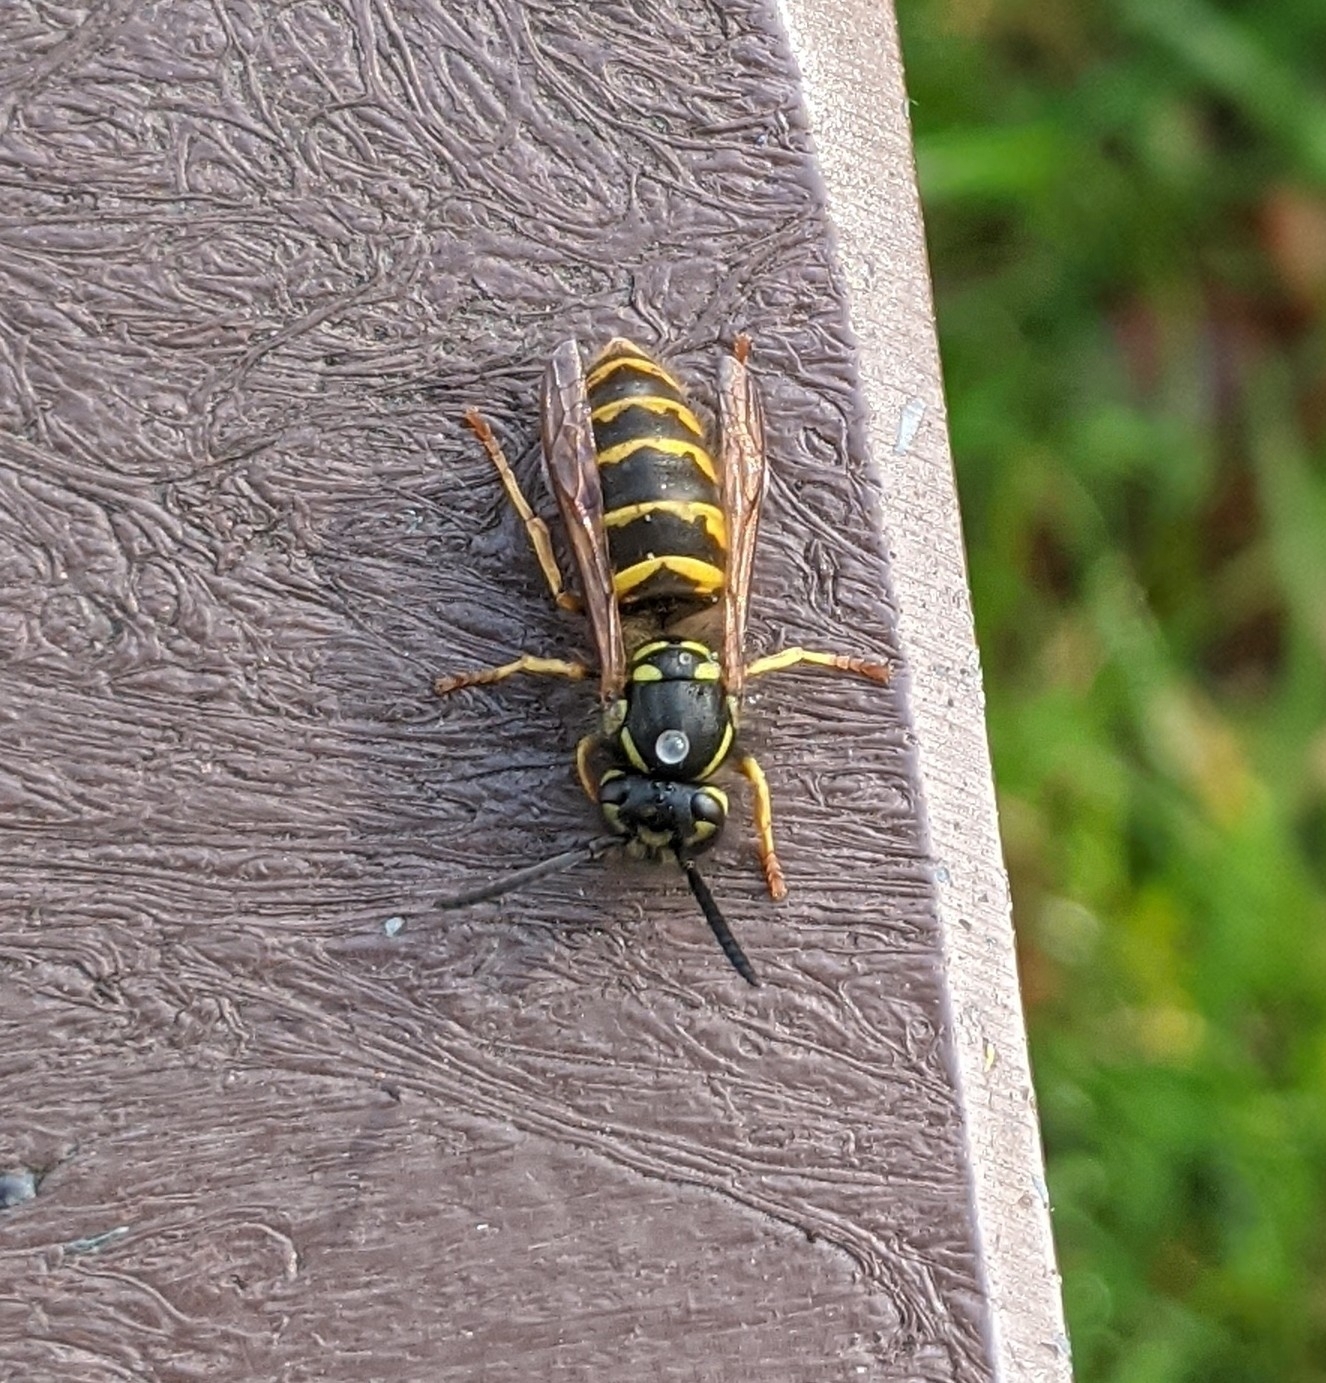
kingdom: Animalia
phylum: Arthropoda
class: Insecta
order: Hymenoptera
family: Vespidae
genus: Vespula
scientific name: Vespula vulgaris
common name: Common wasp
